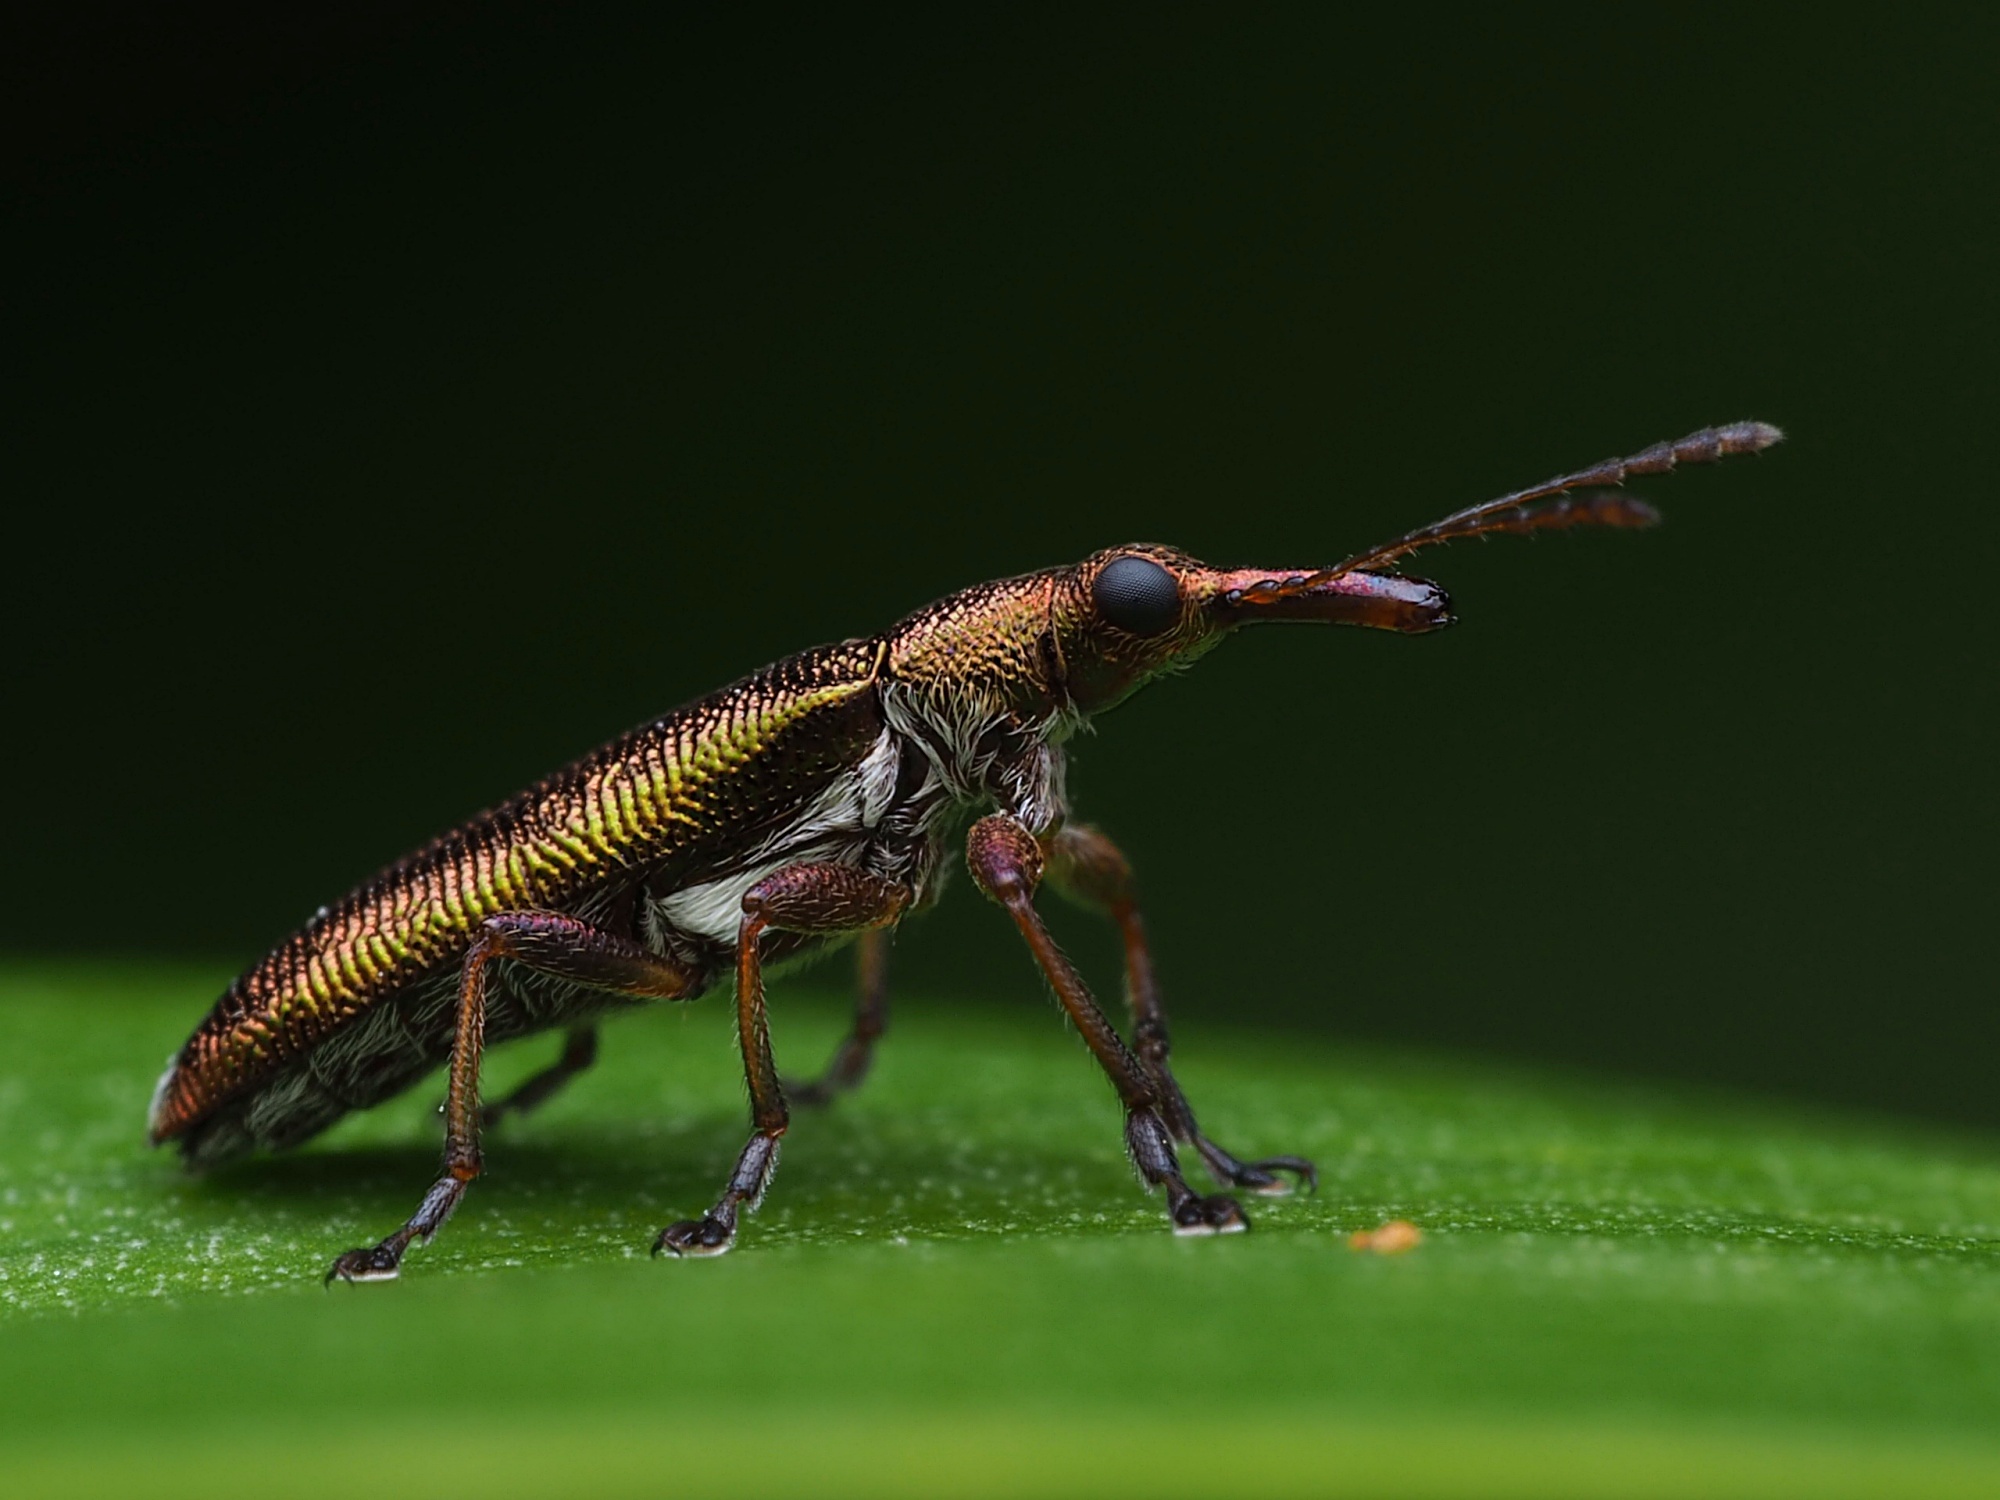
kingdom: Animalia
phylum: Arthropoda
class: Insecta
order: Coleoptera
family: Belidae
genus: Rhicnobelus
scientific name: Rhicnobelus
